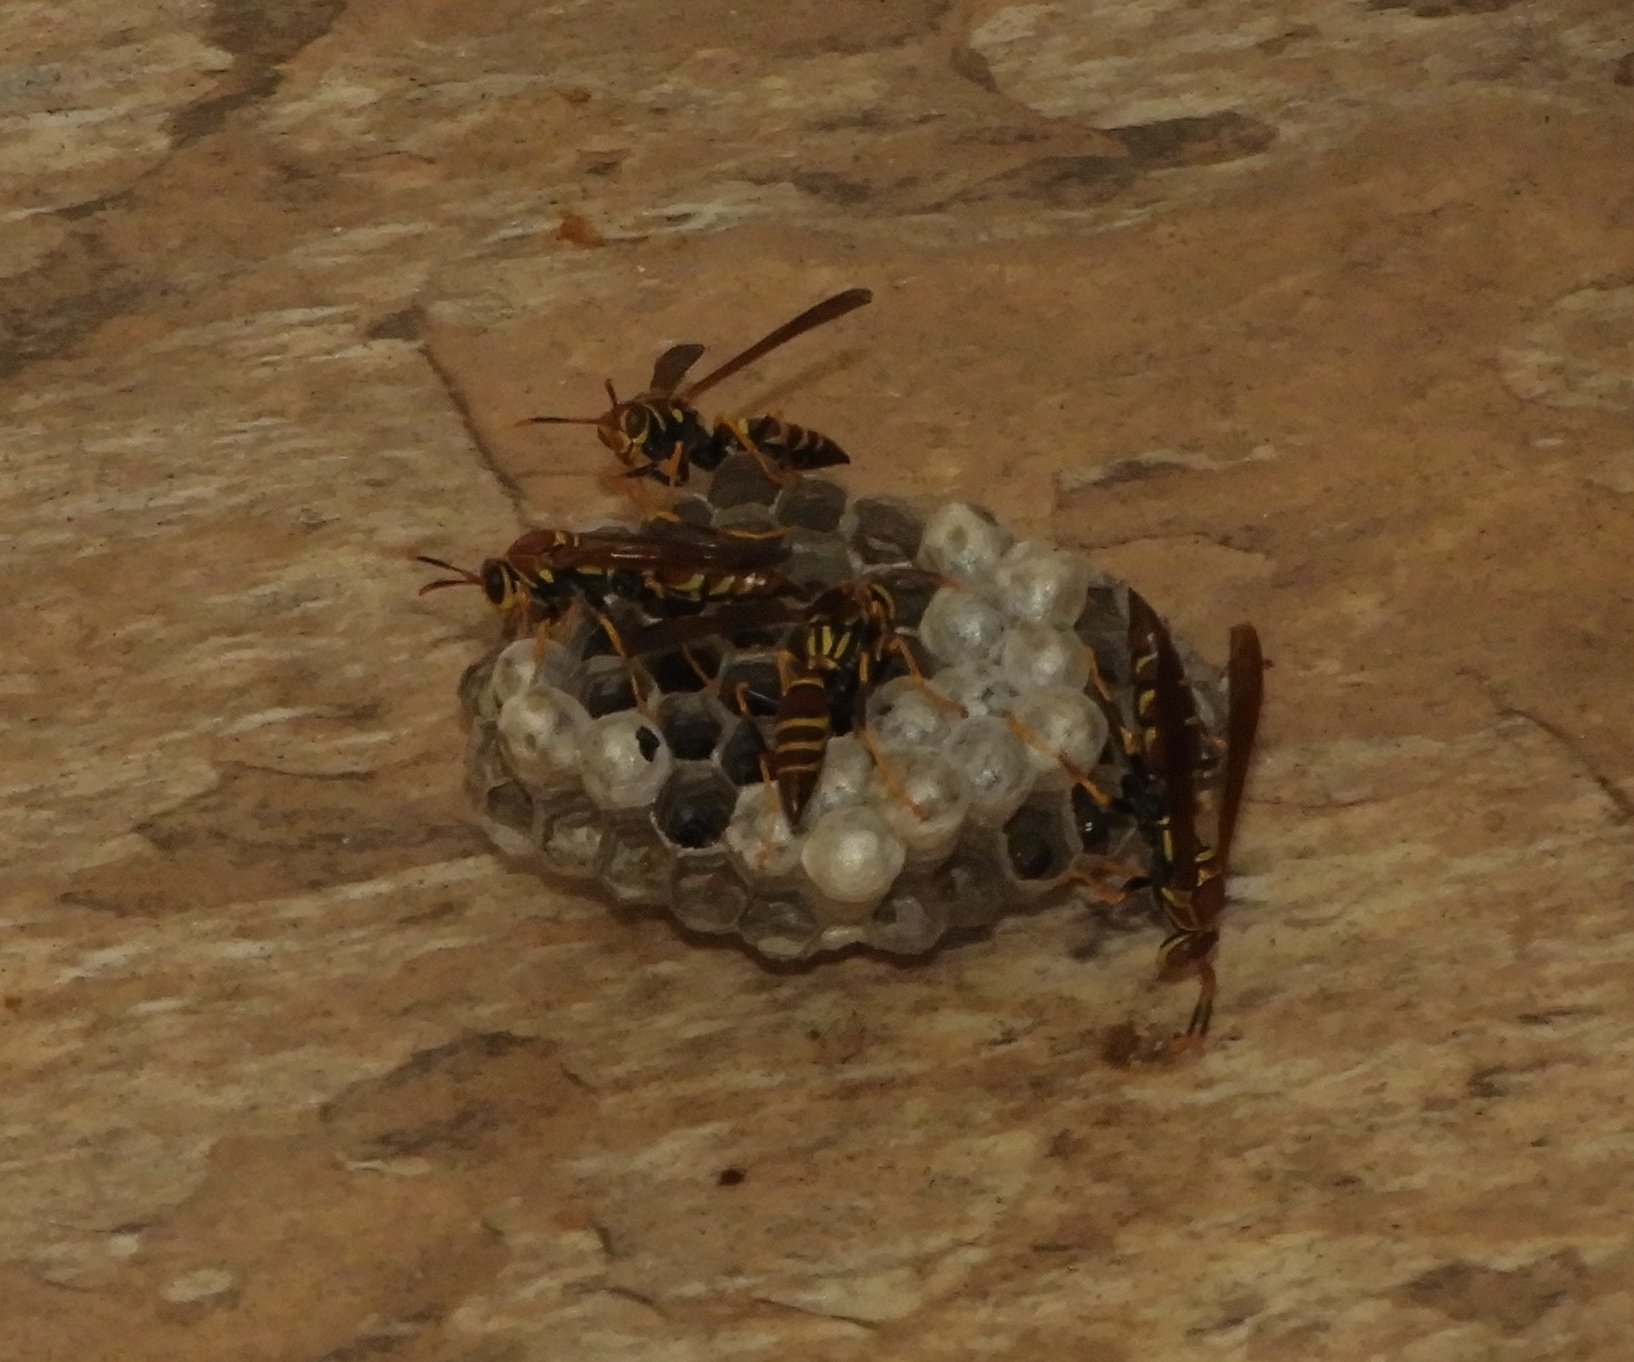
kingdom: Animalia
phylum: Arthropoda
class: Insecta
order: Hymenoptera
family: Eumenidae
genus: Polistes
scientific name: Polistes instabilis
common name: Unstable paper wasp
